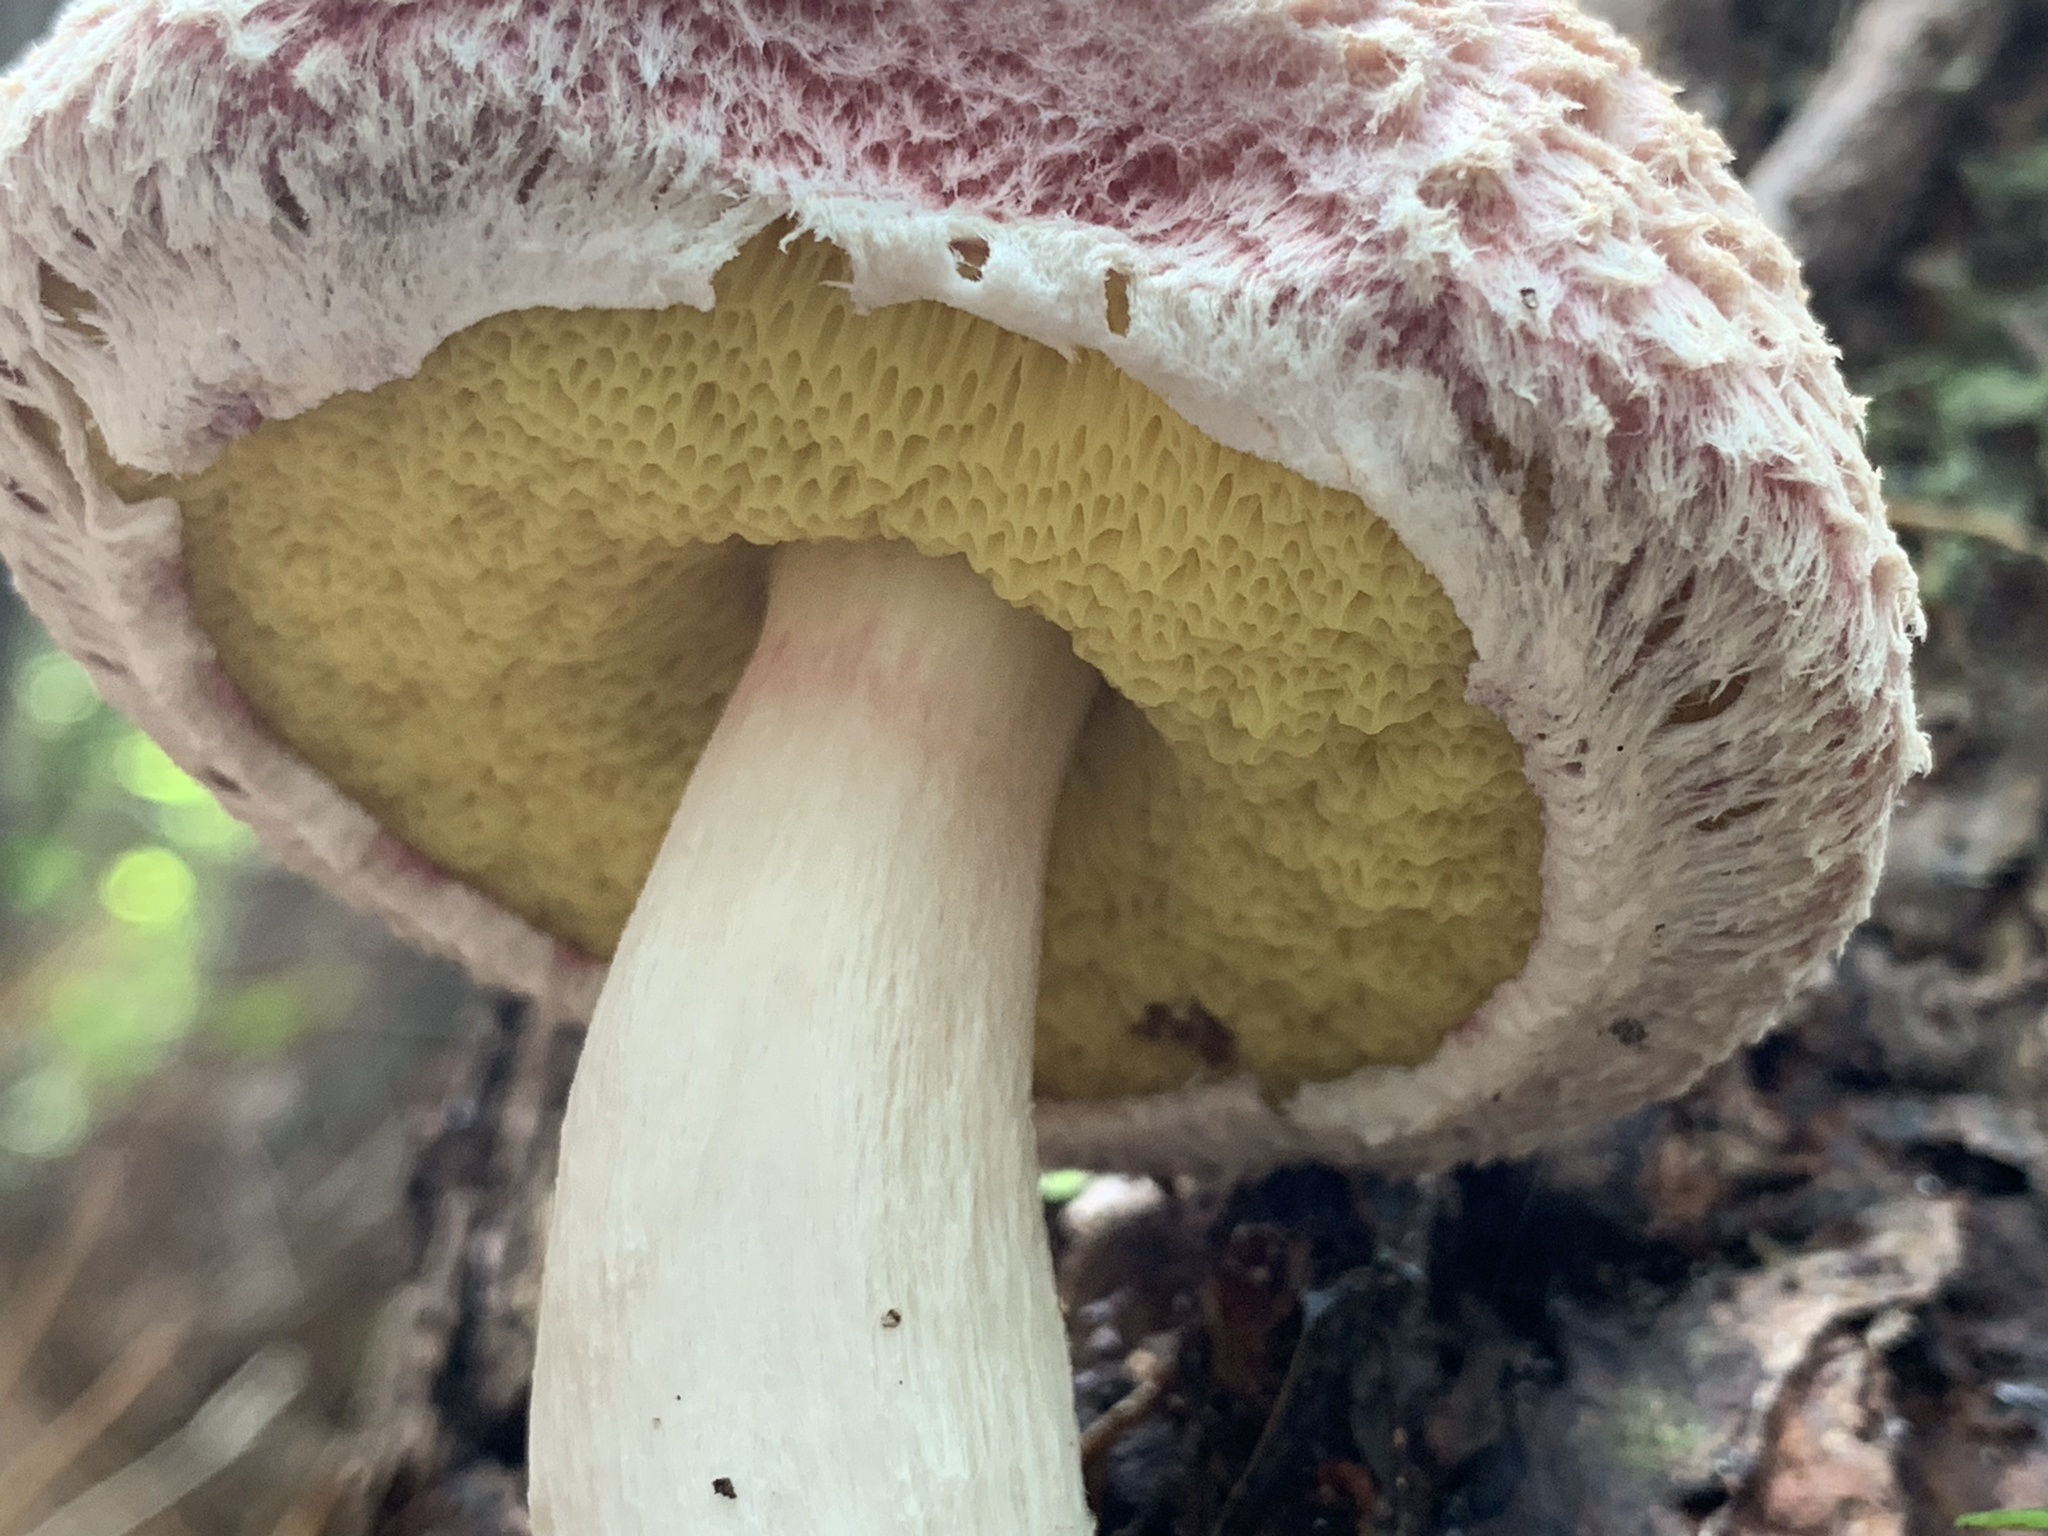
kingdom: Fungi
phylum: Basidiomycota
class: Agaricomycetes
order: Boletales
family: Boletaceae
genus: Boletellus
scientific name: Boletellus ananas
